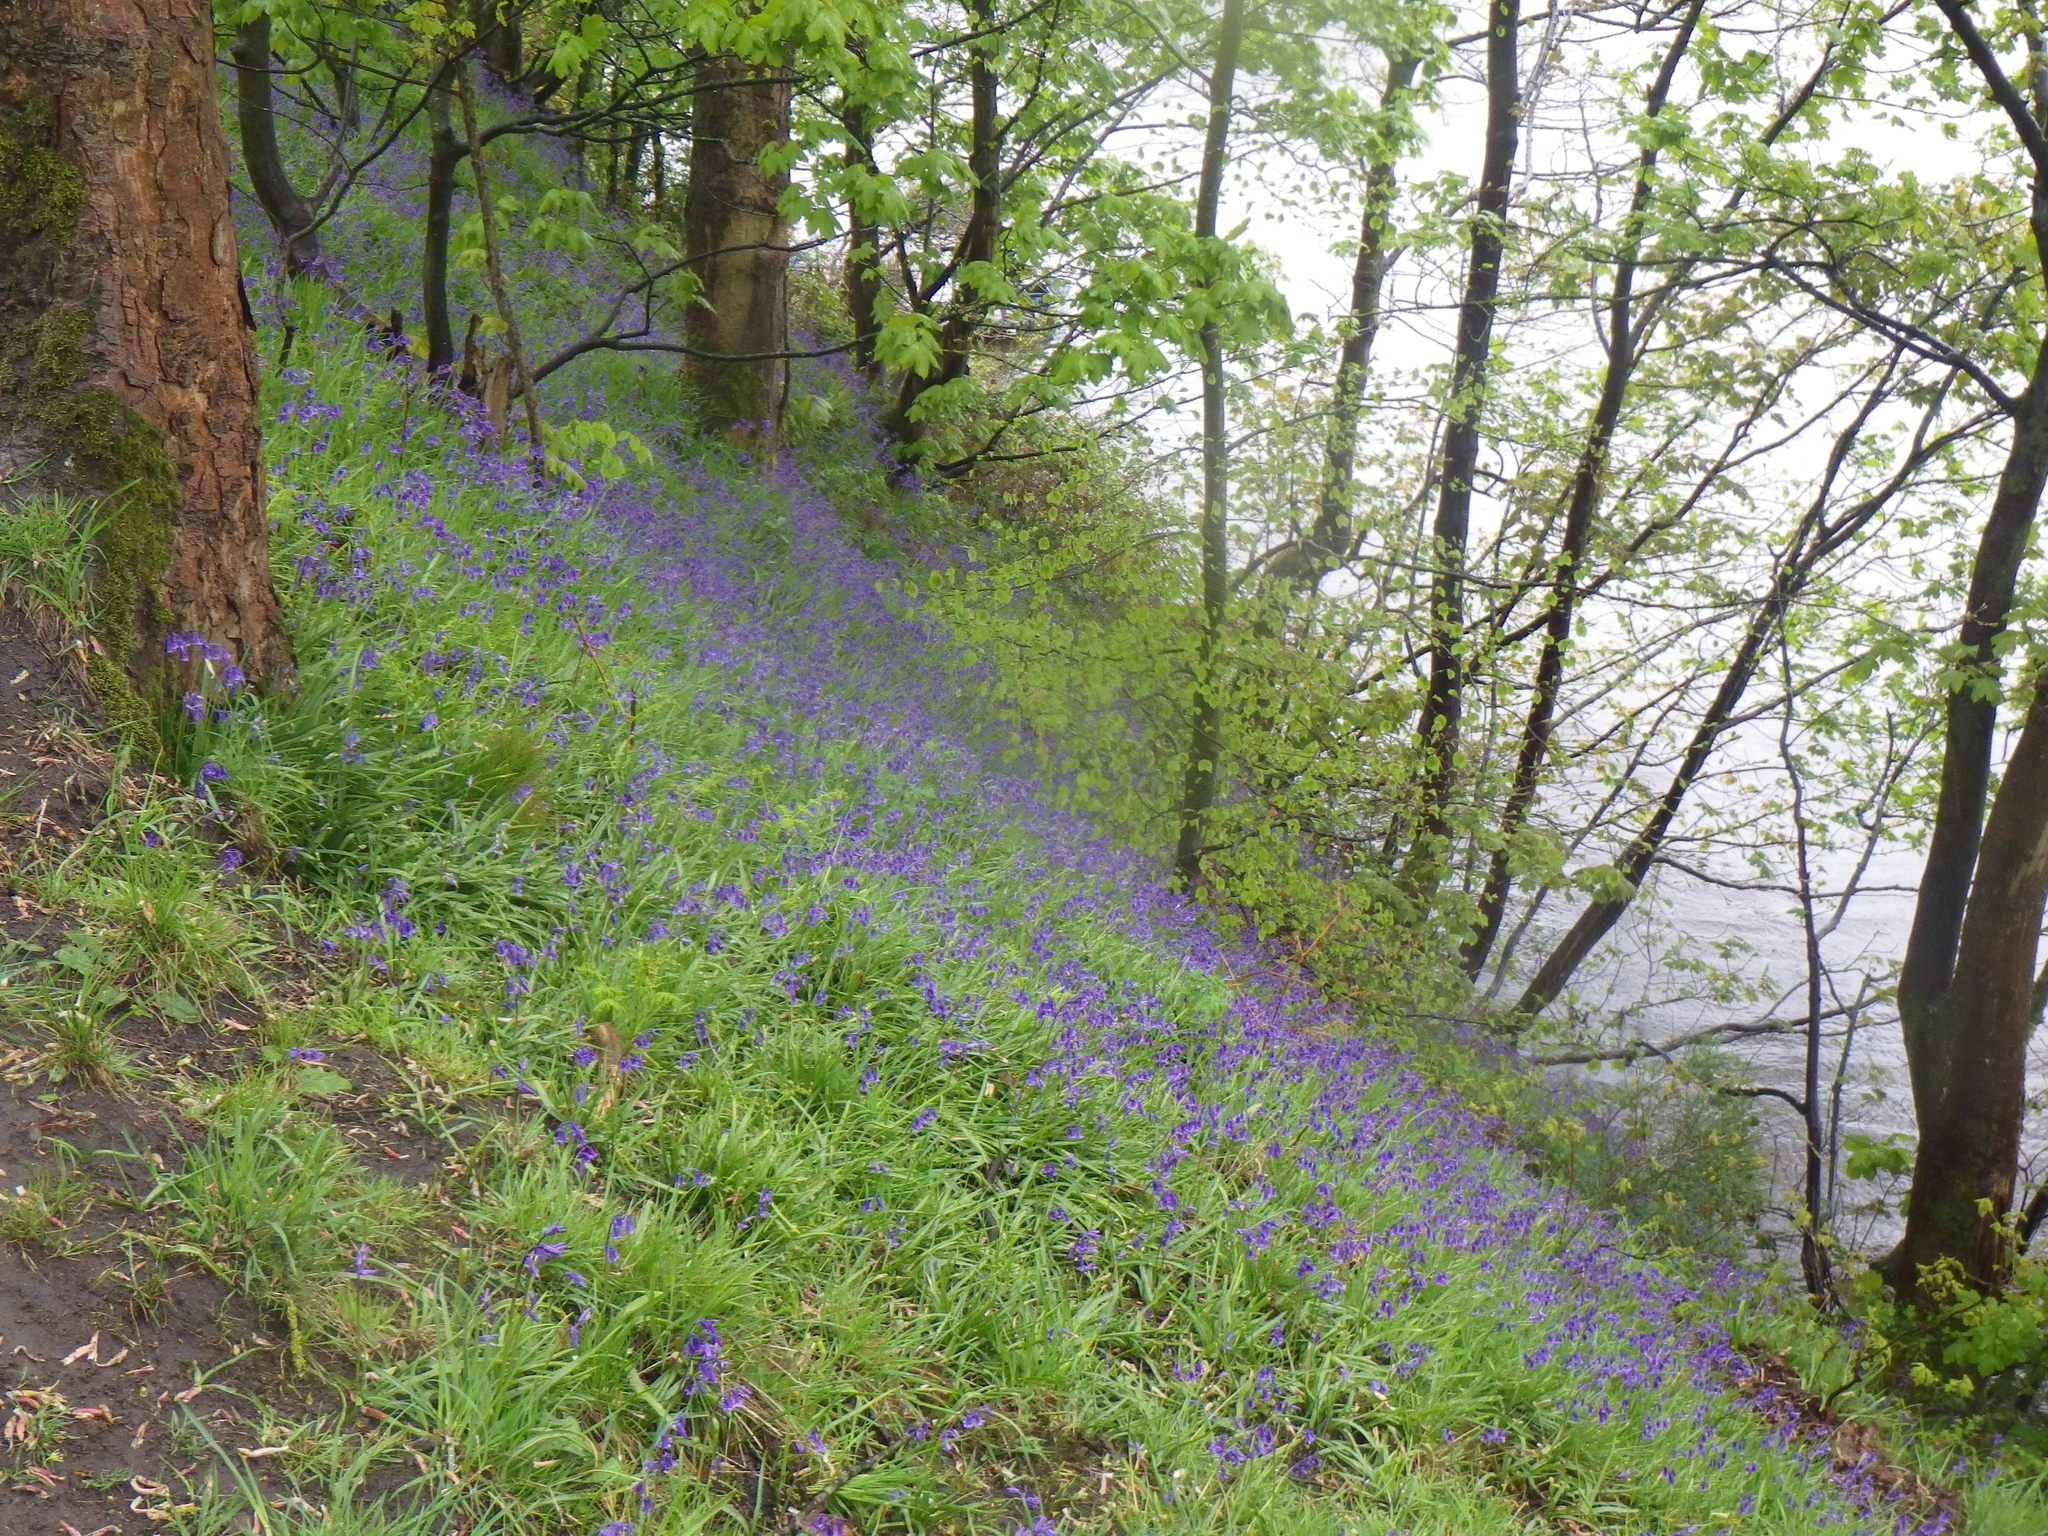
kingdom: Plantae
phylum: Tracheophyta
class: Liliopsida
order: Asparagales
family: Asparagaceae
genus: Hyacinthoides
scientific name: Hyacinthoides non-scripta
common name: Bluebell
